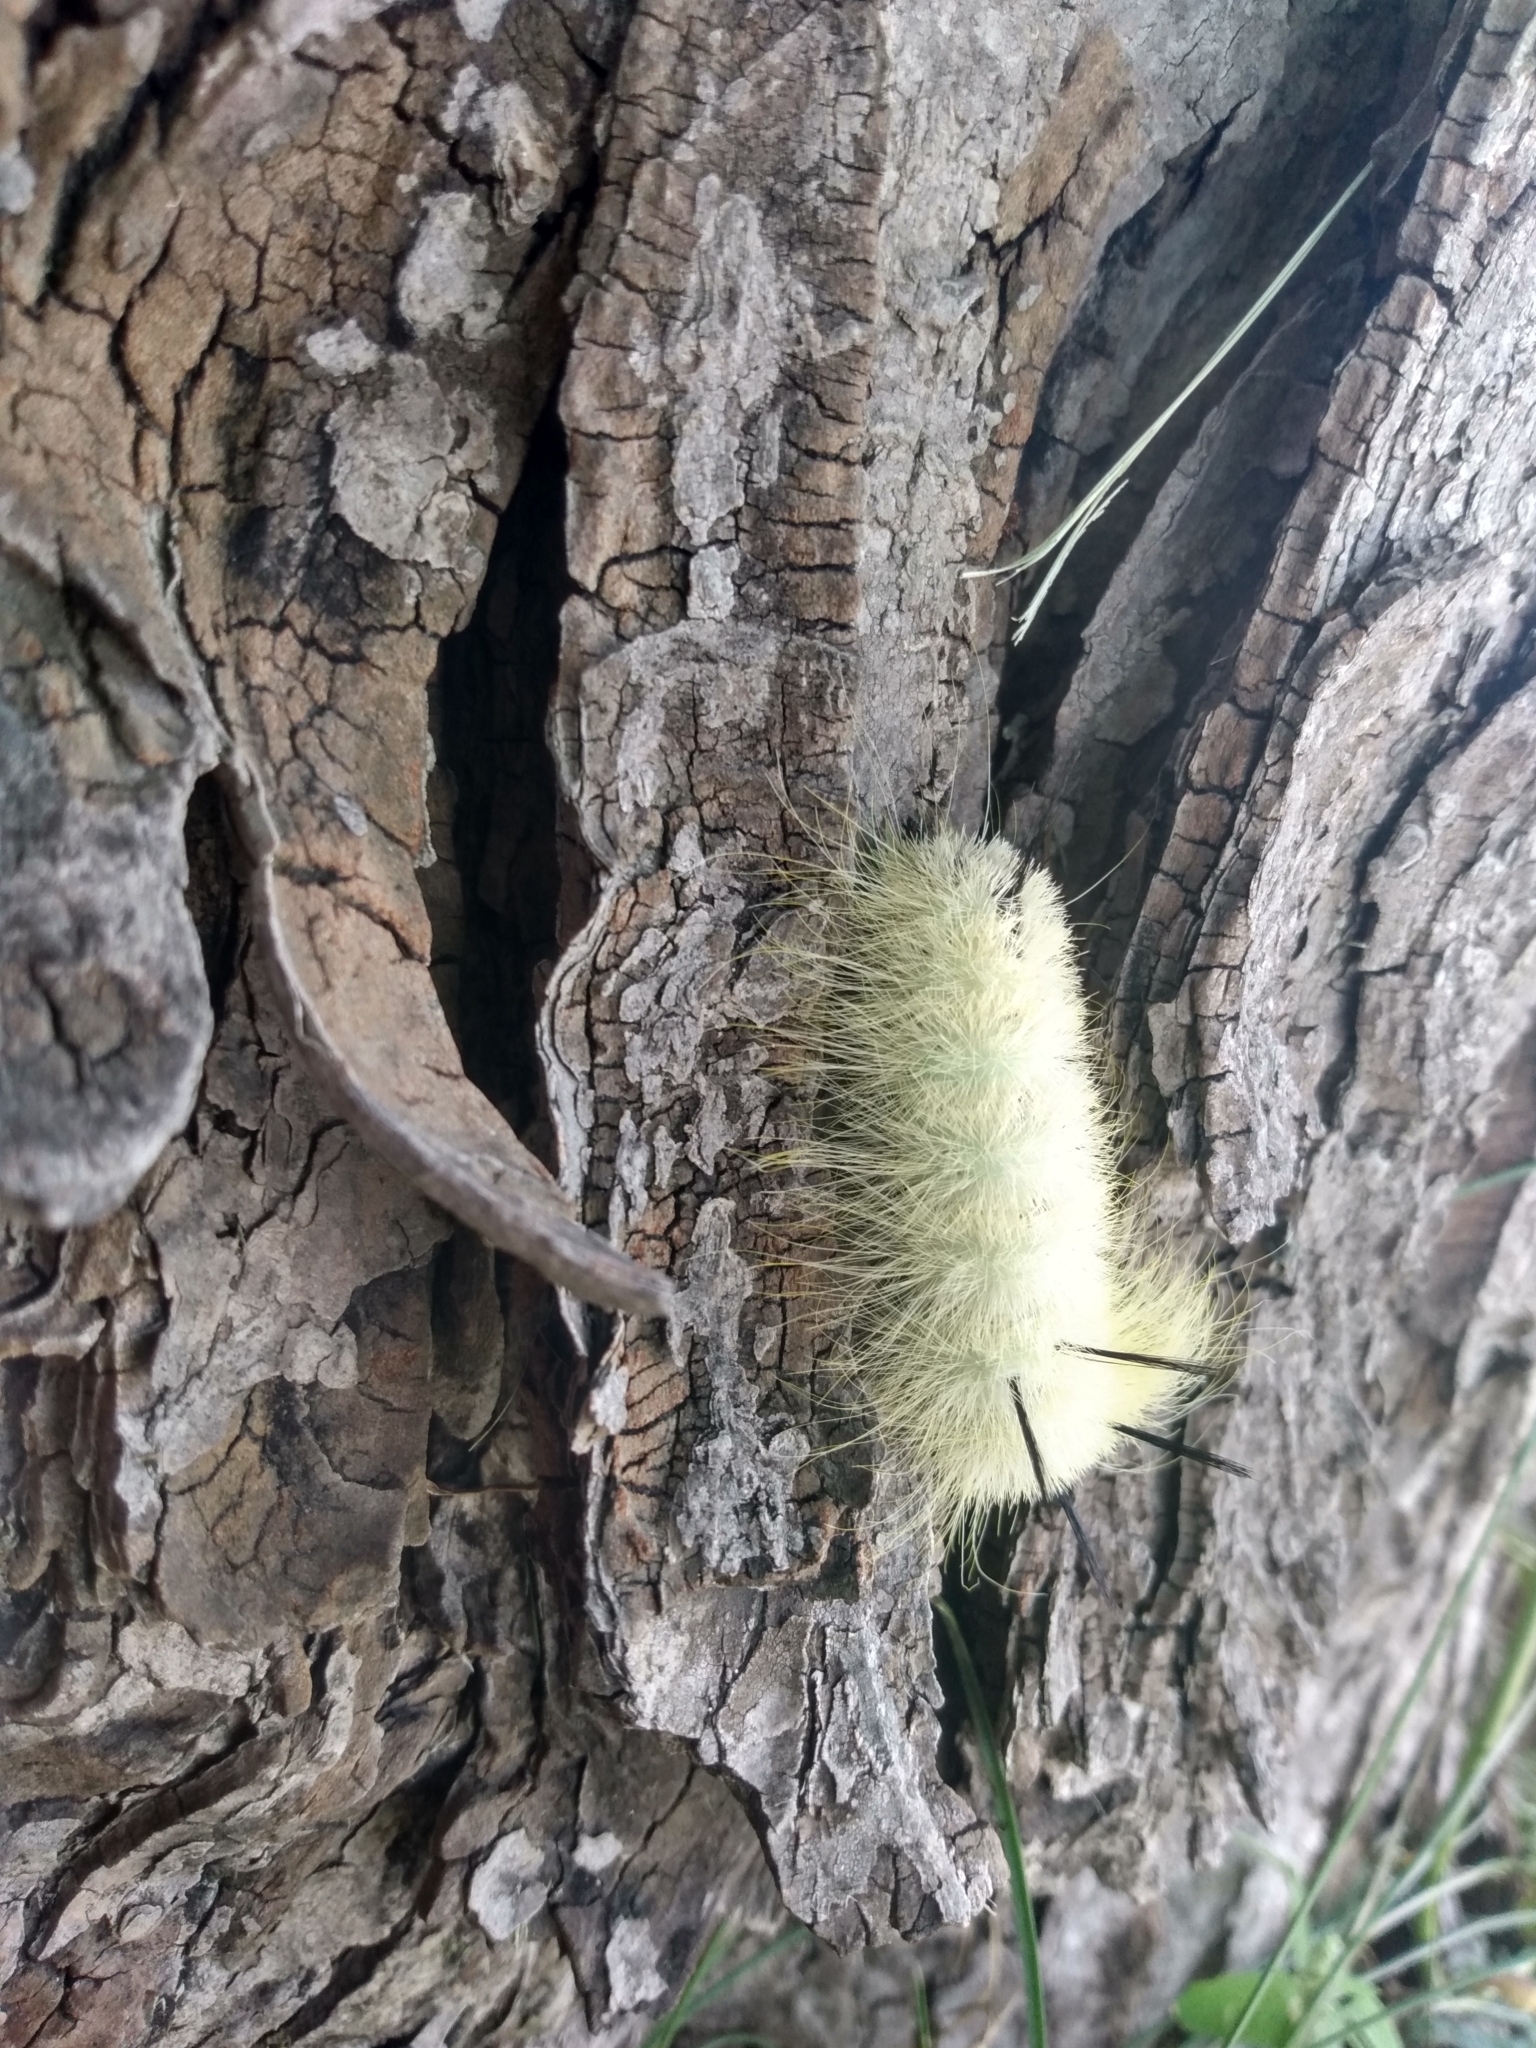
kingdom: Animalia
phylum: Arthropoda
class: Insecta
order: Lepidoptera
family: Noctuidae
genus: Acronicta
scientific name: Acronicta americana
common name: American dagger
